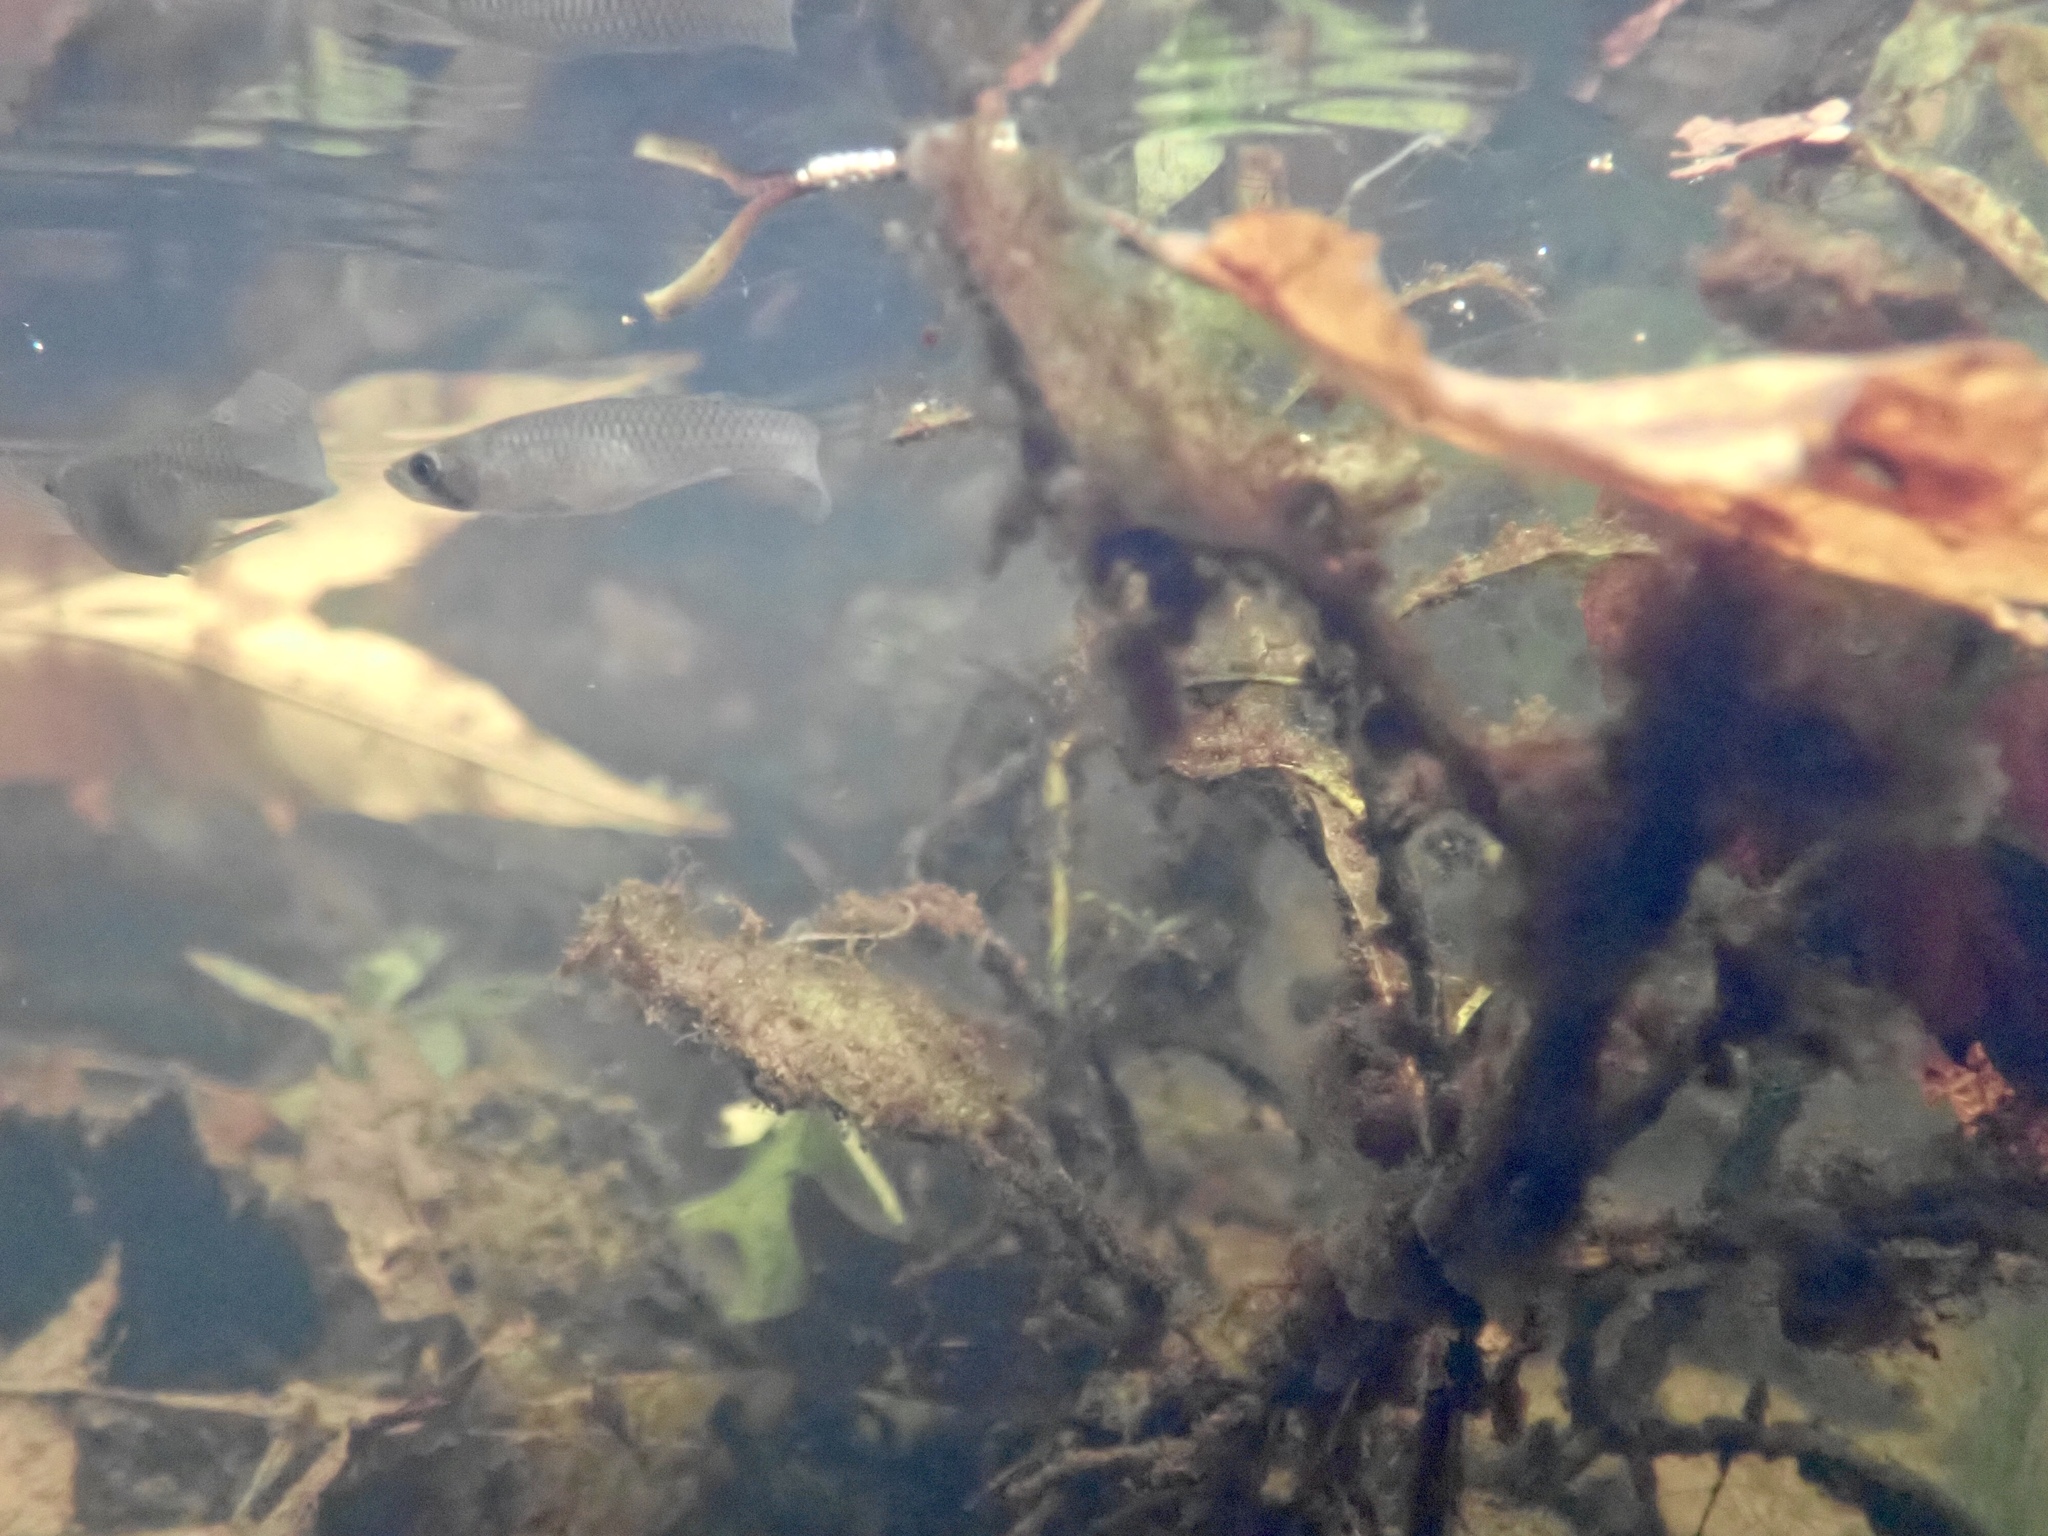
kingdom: Animalia
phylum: Chordata
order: Cyprinodontiformes
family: Poeciliidae
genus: Gambusia
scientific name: Gambusia holbrooki
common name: Eastern mosquitofish
